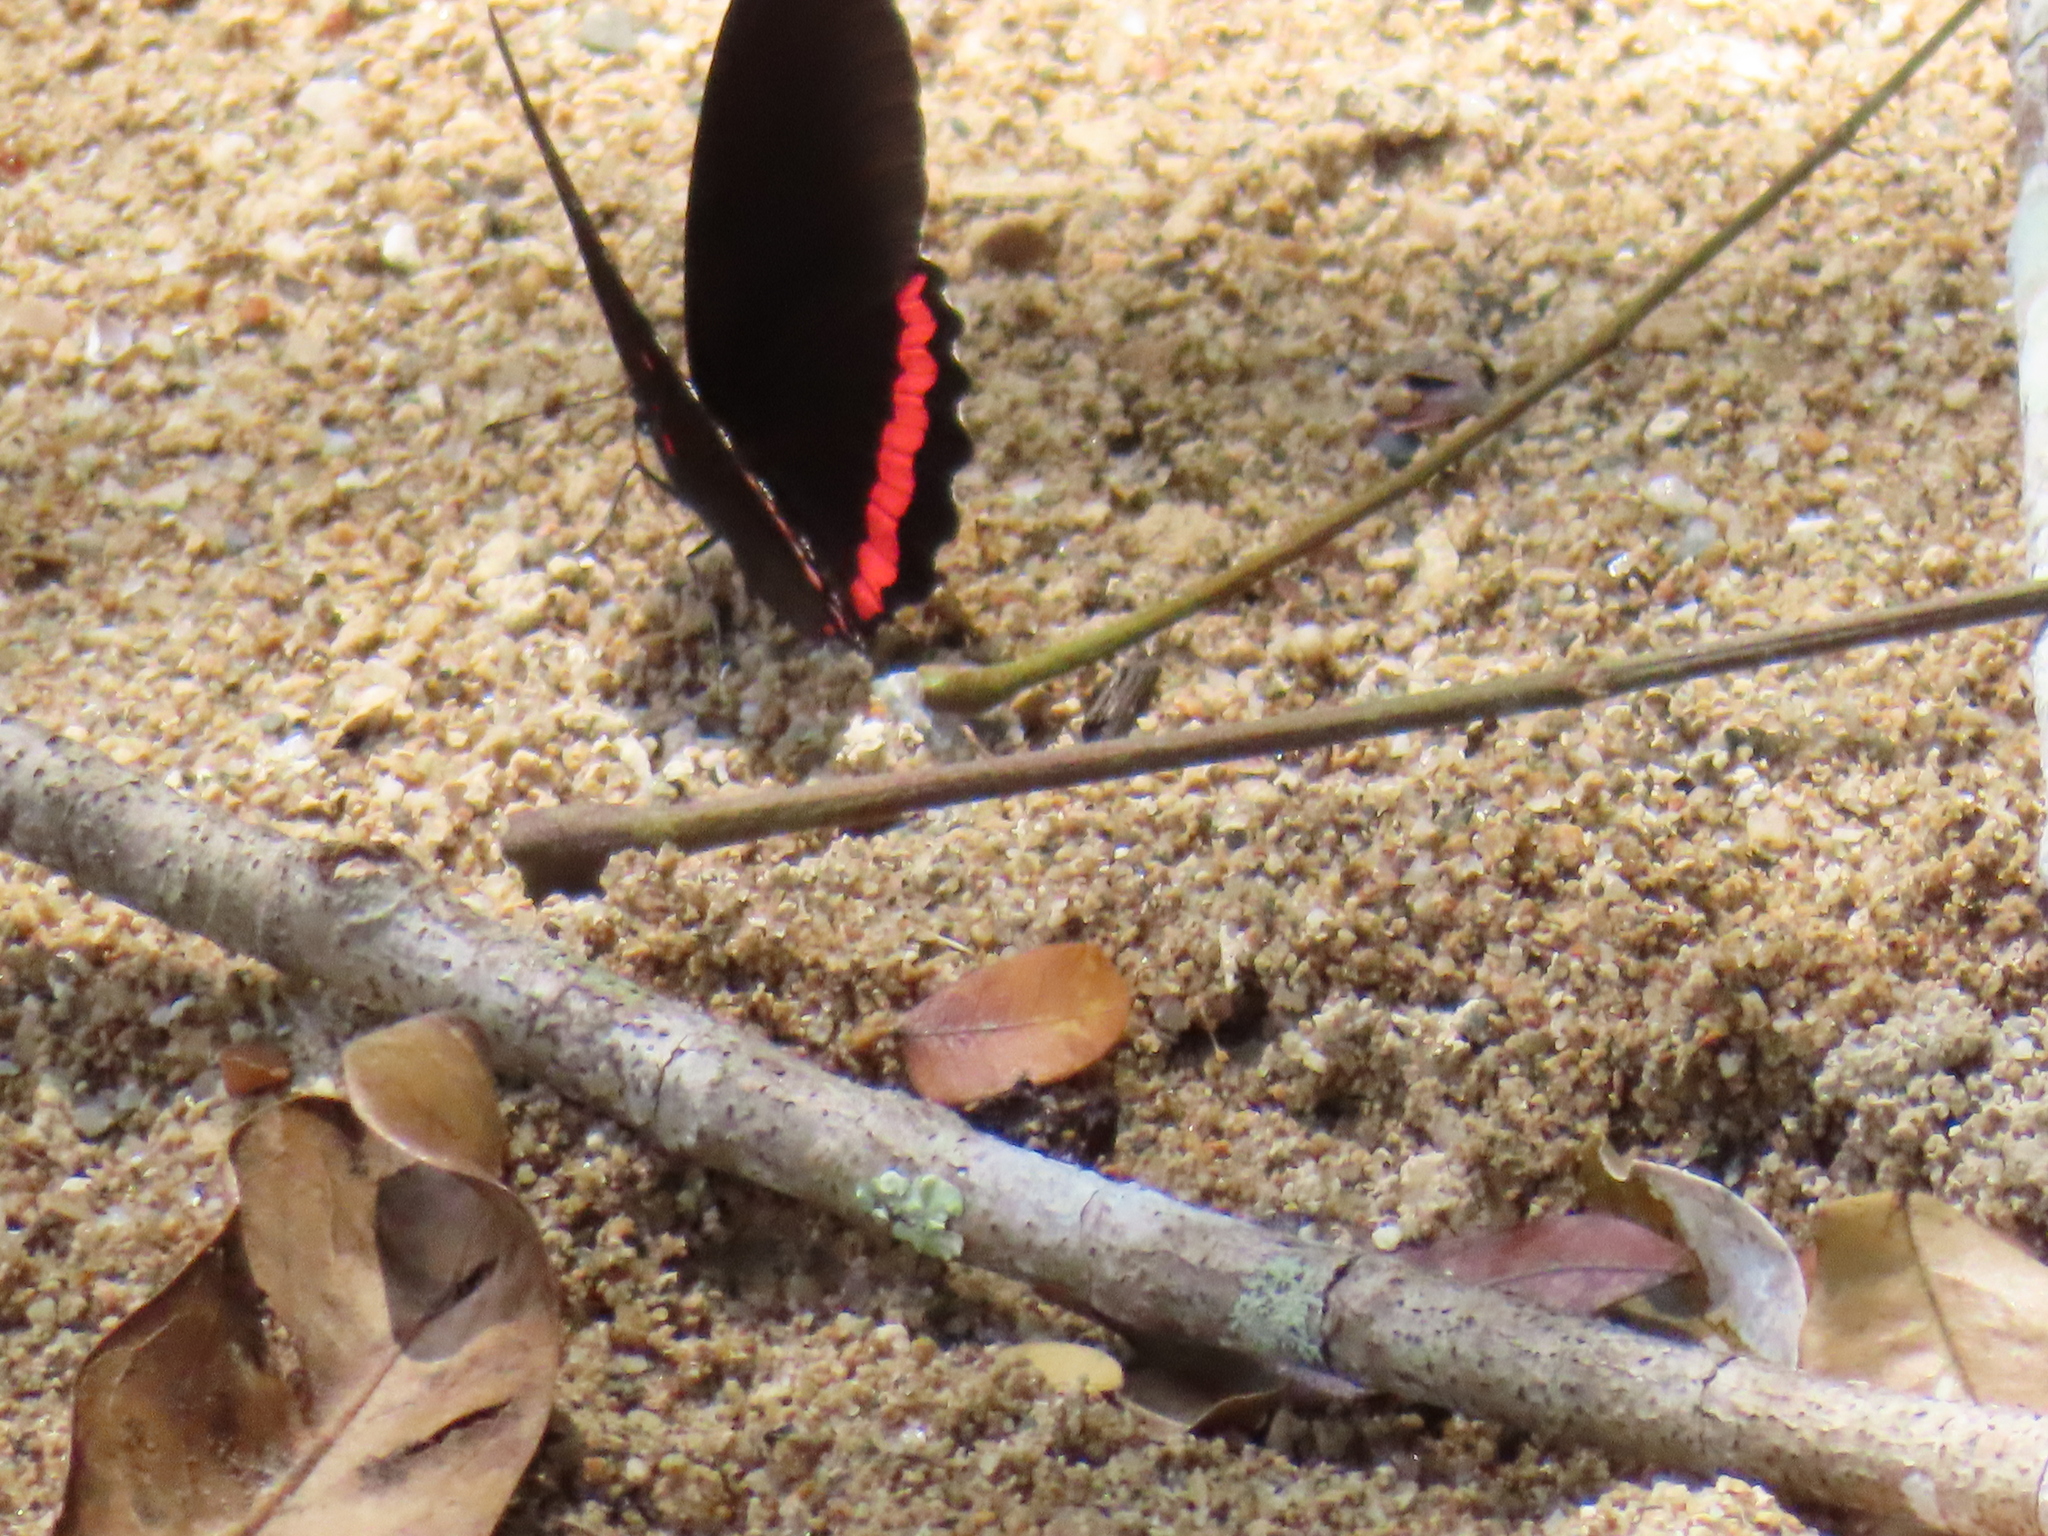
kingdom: Animalia
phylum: Arthropoda
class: Insecta
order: Lepidoptera
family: Nymphalidae
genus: Biblis
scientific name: Biblis aganisa
